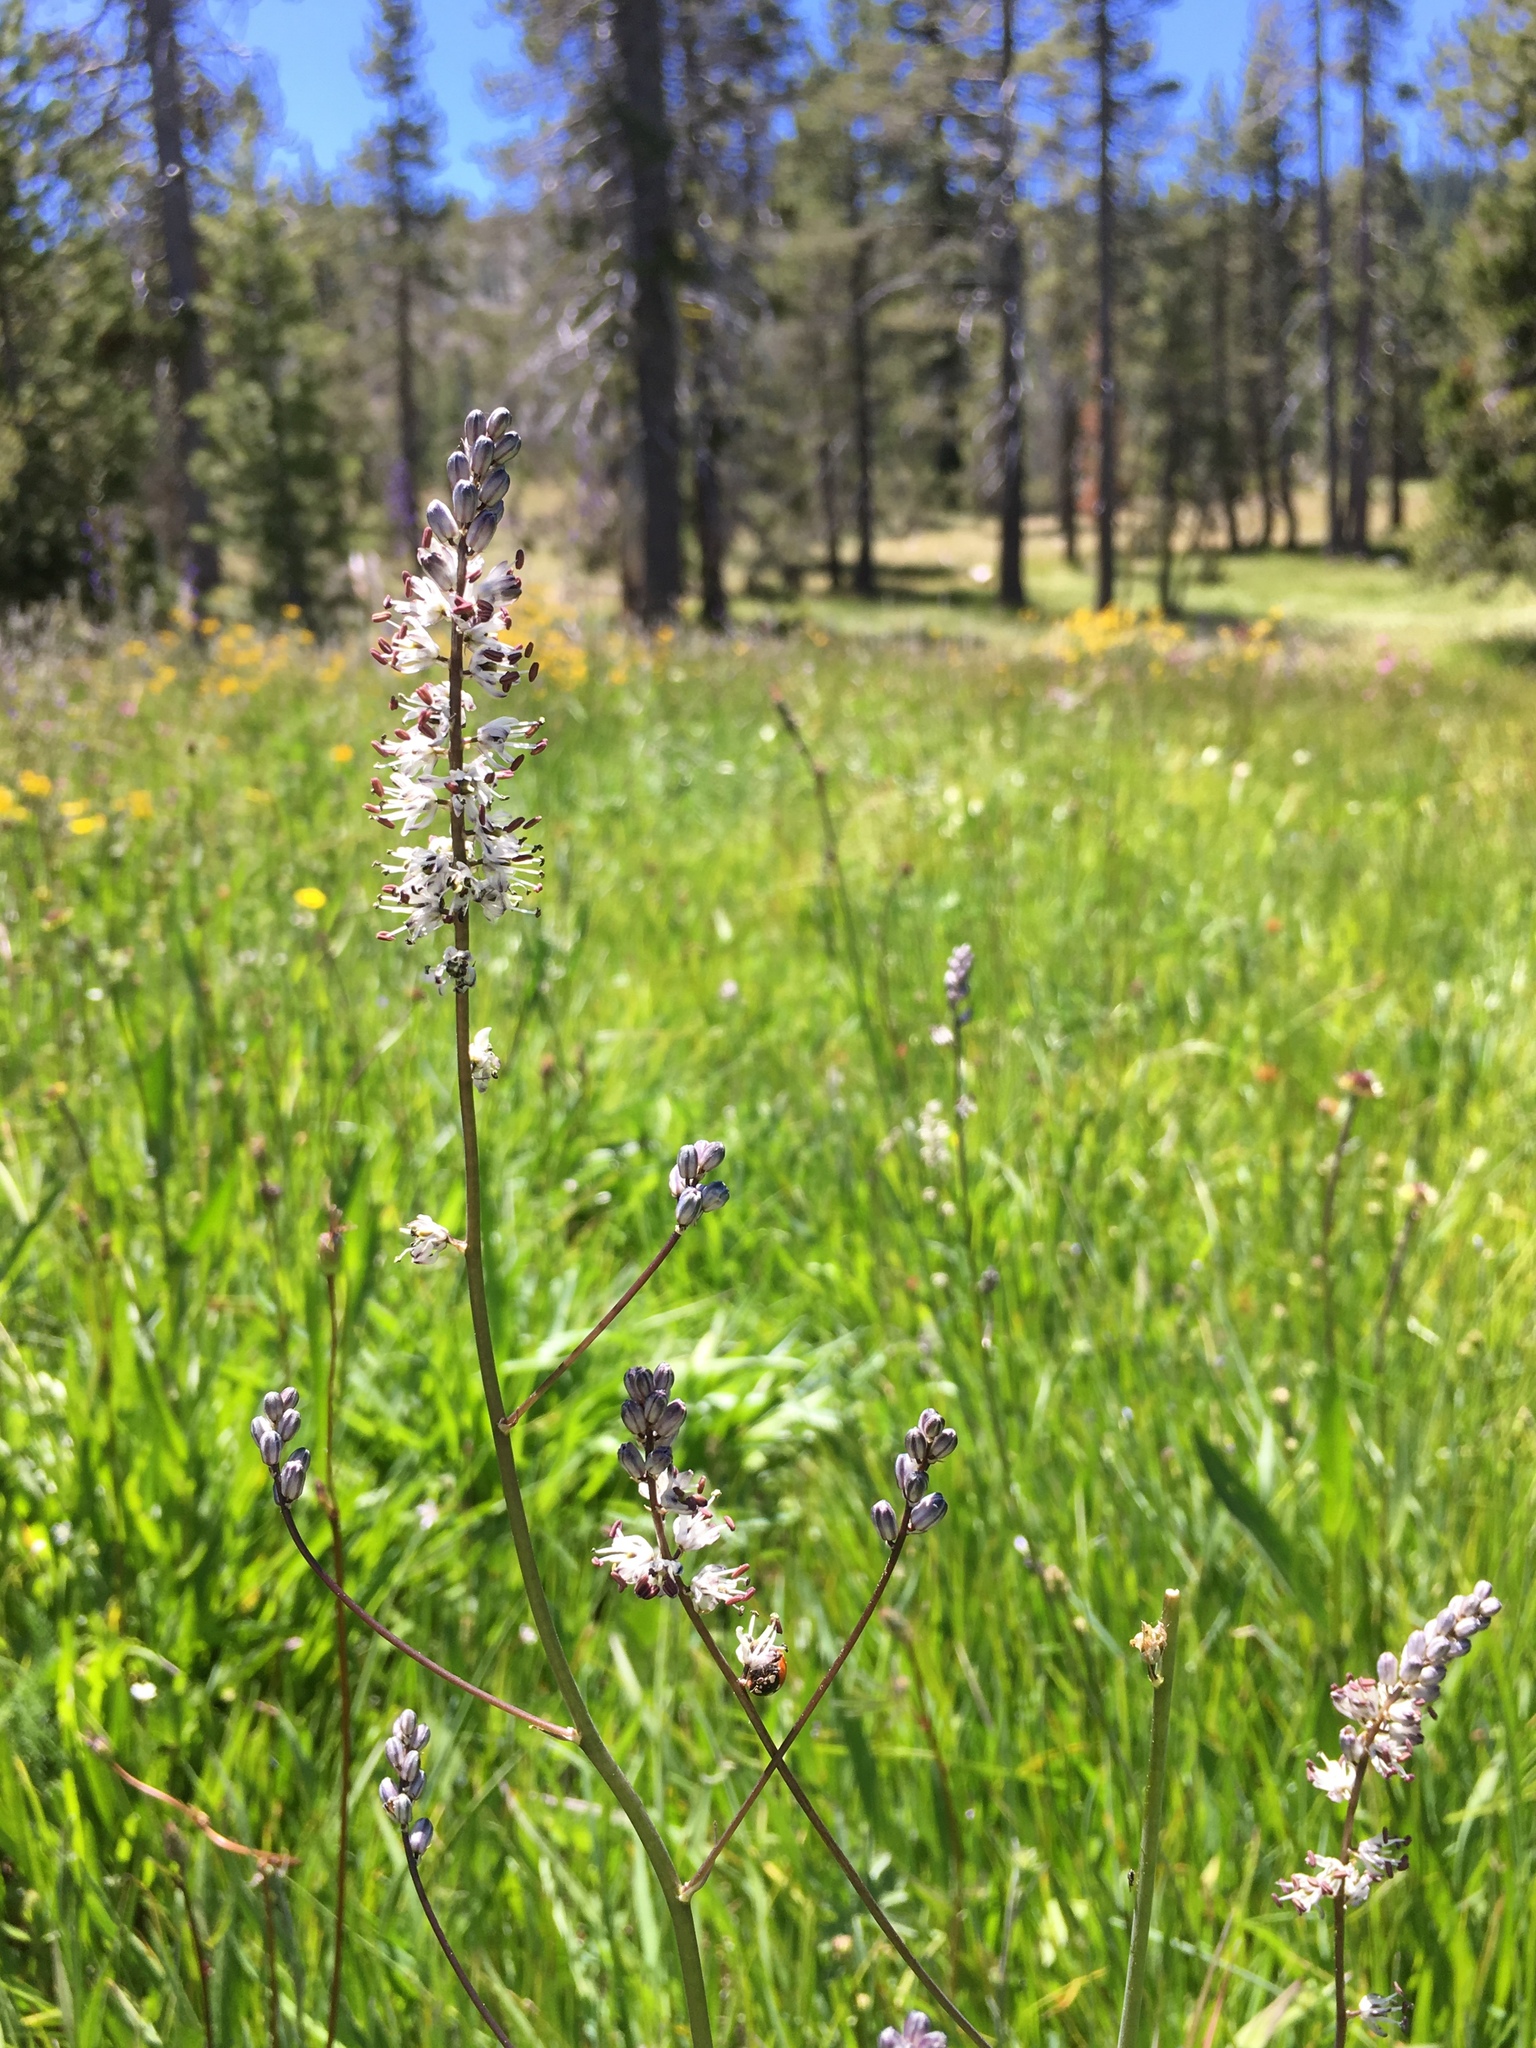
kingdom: Plantae
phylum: Tracheophyta
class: Liliopsida
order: Asparagales
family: Asparagaceae
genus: Hastingsia
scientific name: Hastingsia alba
